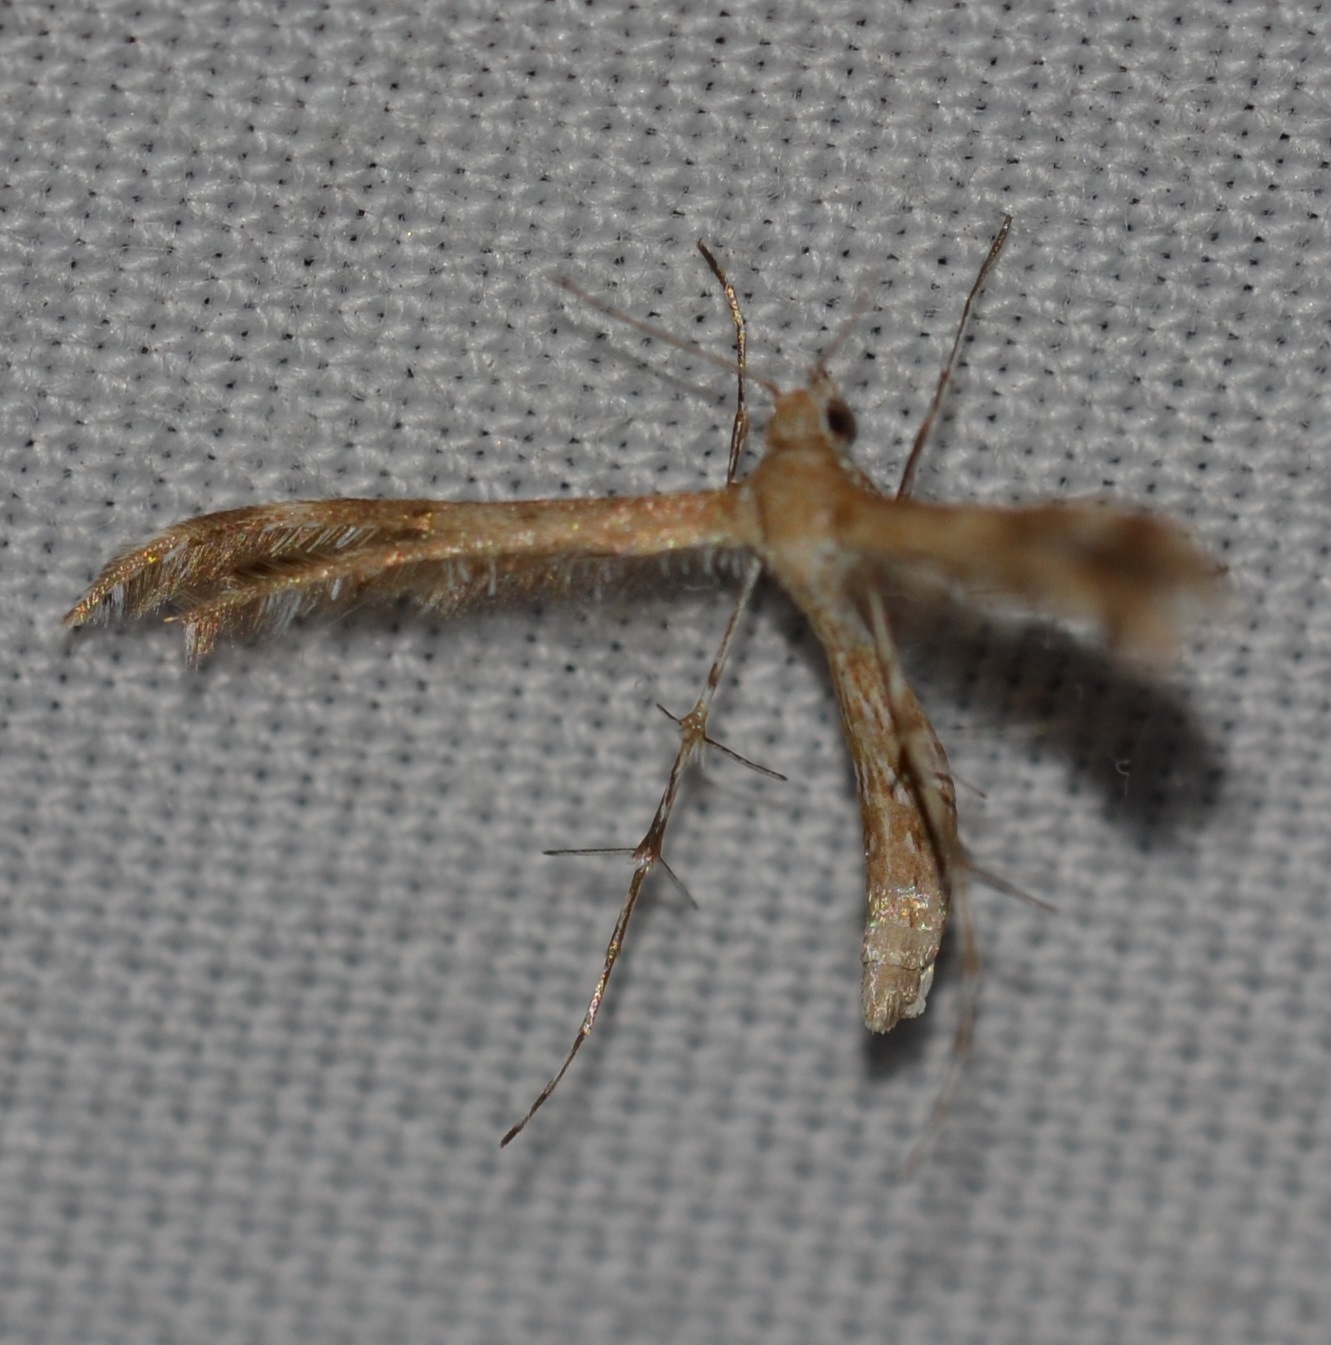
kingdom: Animalia
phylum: Arthropoda
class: Insecta
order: Lepidoptera
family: Pterophoridae
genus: Megalorhipida
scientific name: Megalorhipida leucodactylus
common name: Plume moth
